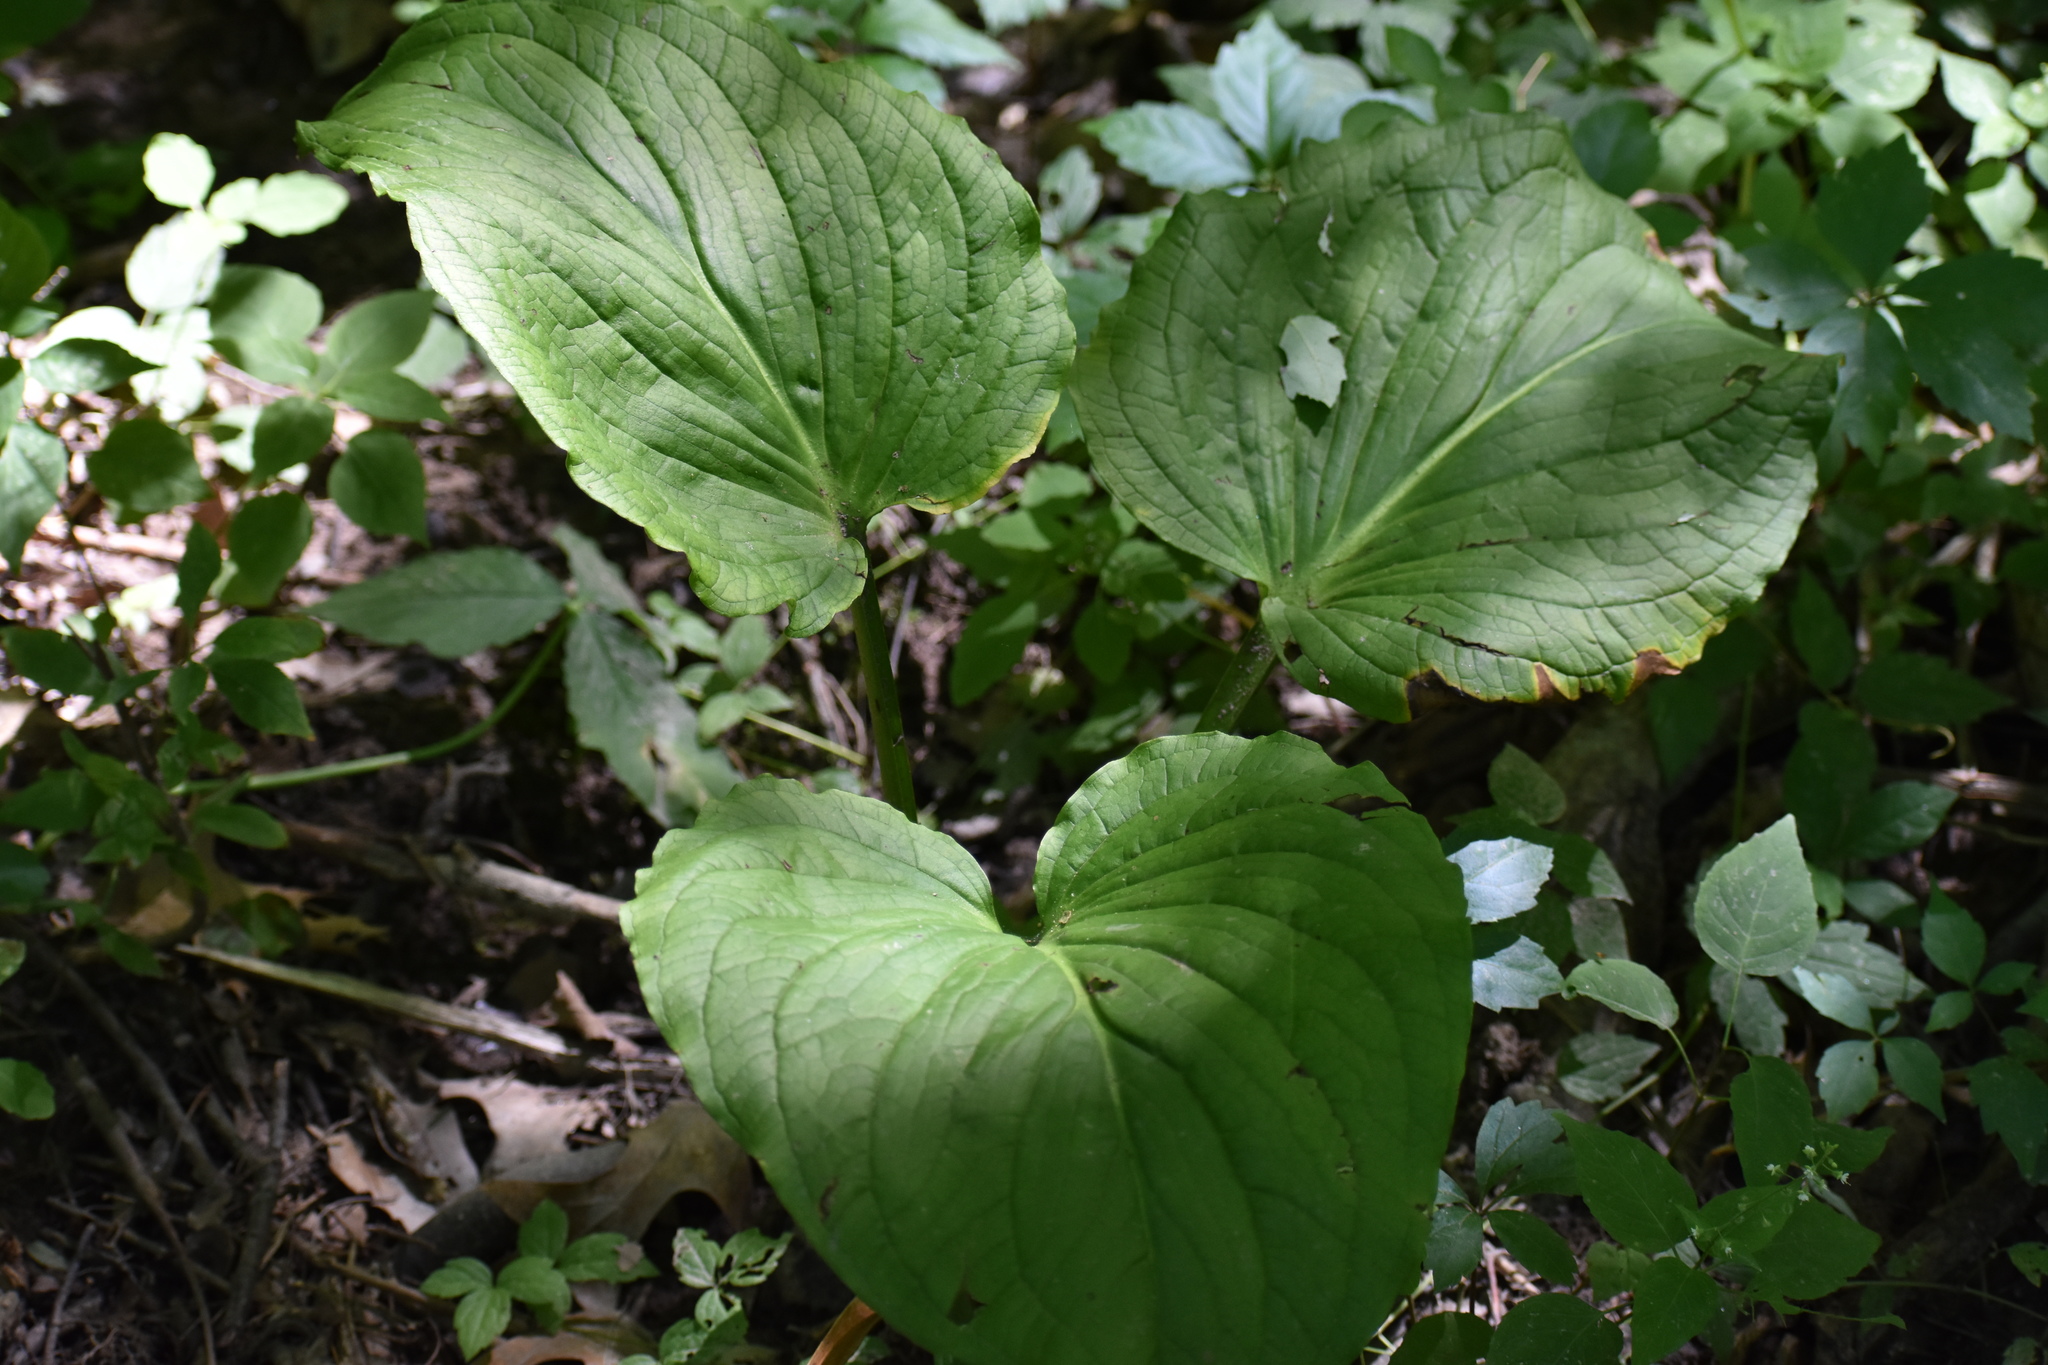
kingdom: Plantae
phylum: Tracheophyta
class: Liliopsida
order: Alismatales
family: Araceae
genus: Symplocarpus
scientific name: Symplocarpus foetidus
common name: Eastern skunk cabbage
